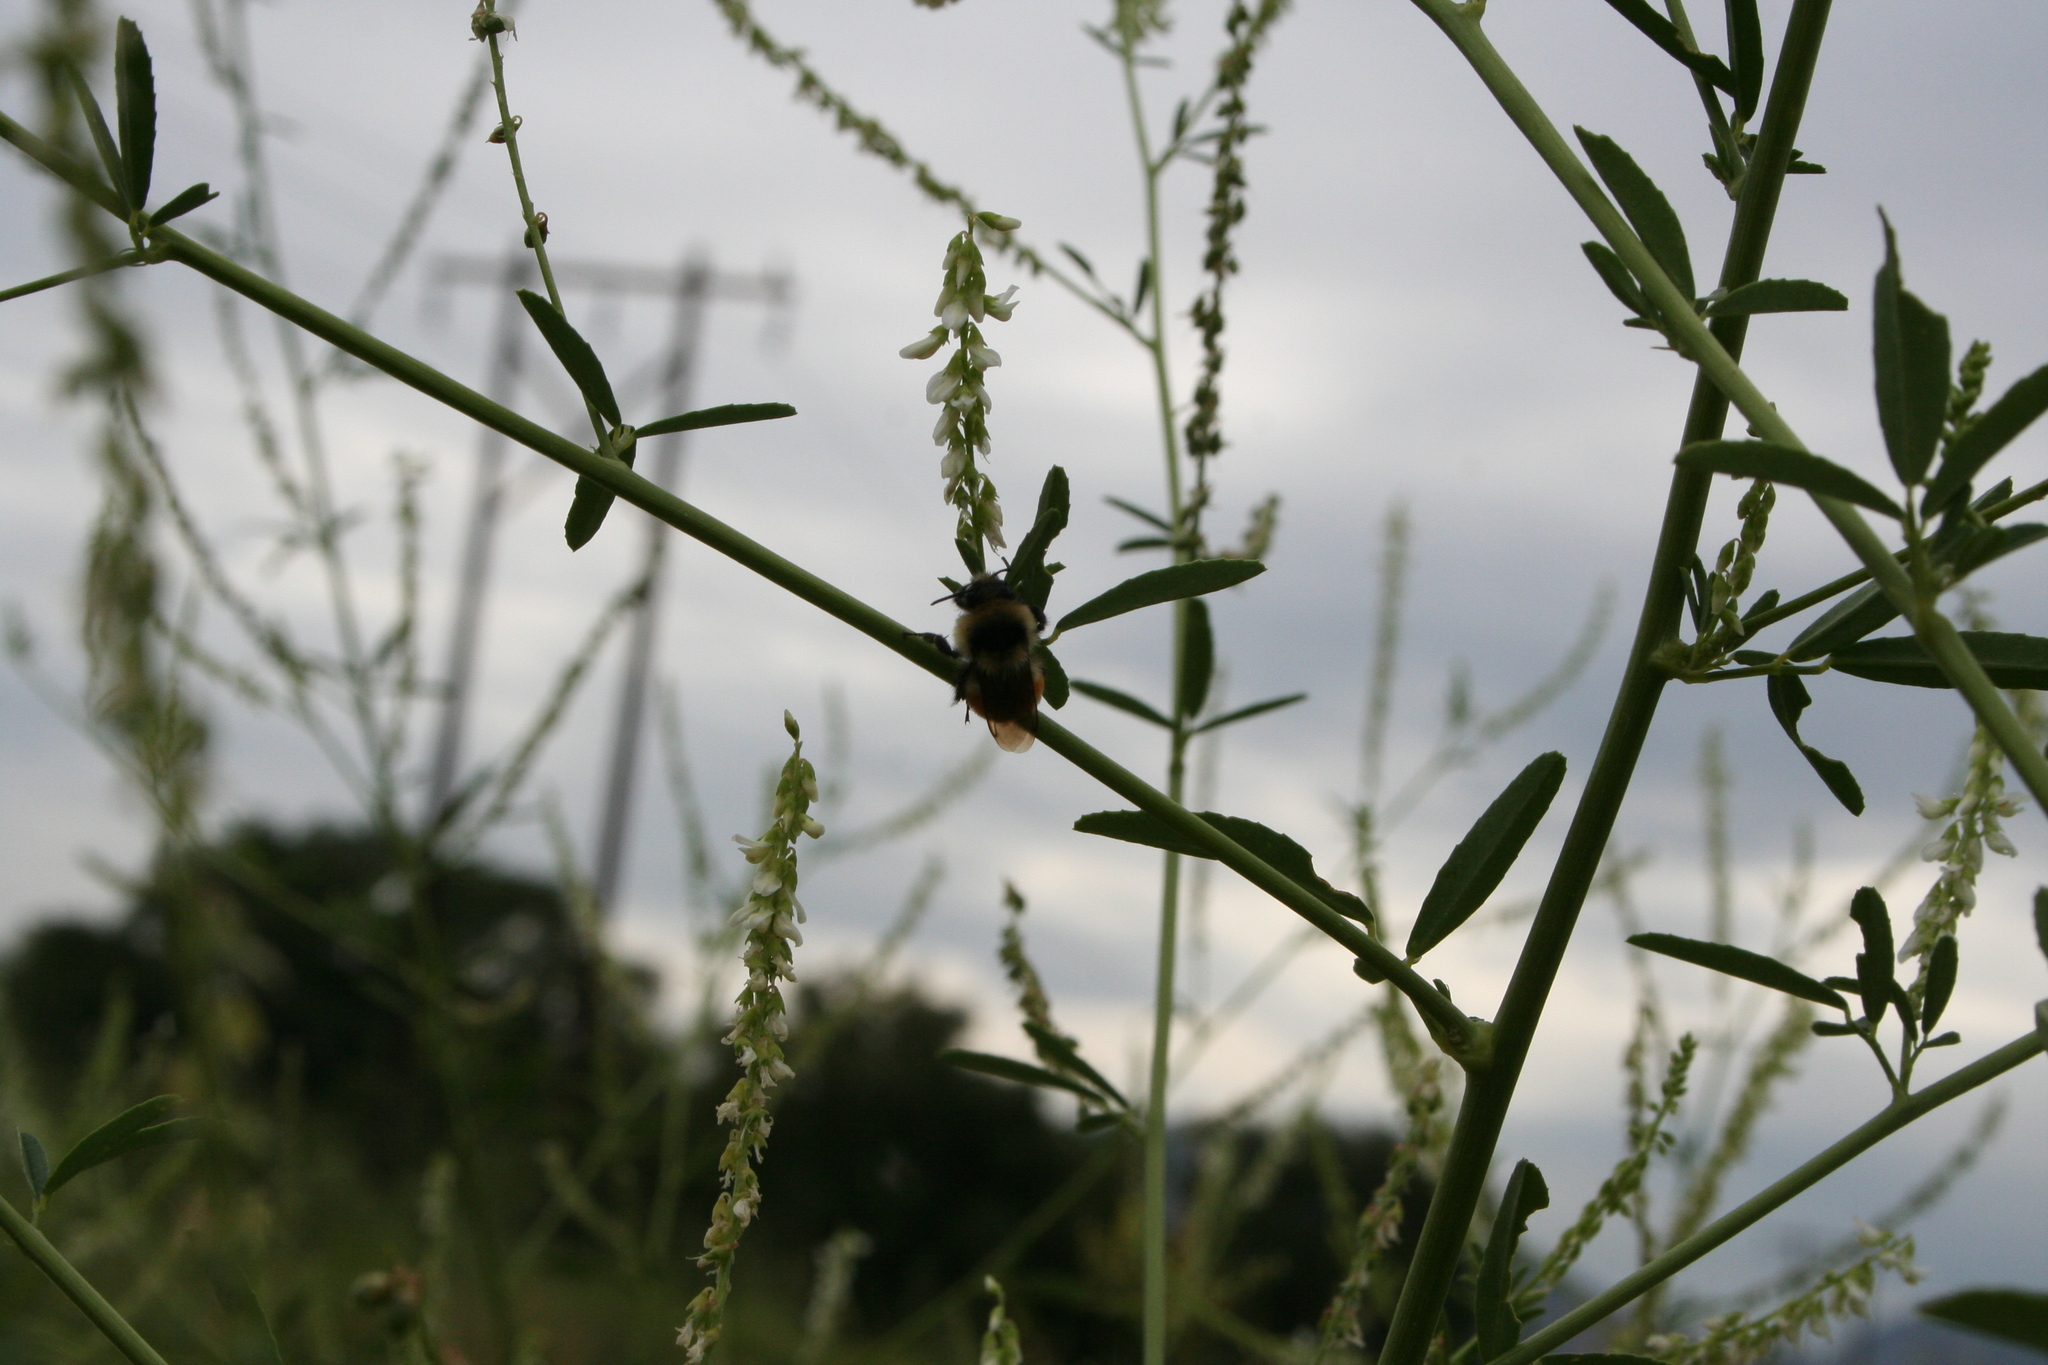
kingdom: Animalia
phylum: Arthropoda
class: Insecta
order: Hymenoptera
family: Apidae
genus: Pyrobombus
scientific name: Pyrobombus
